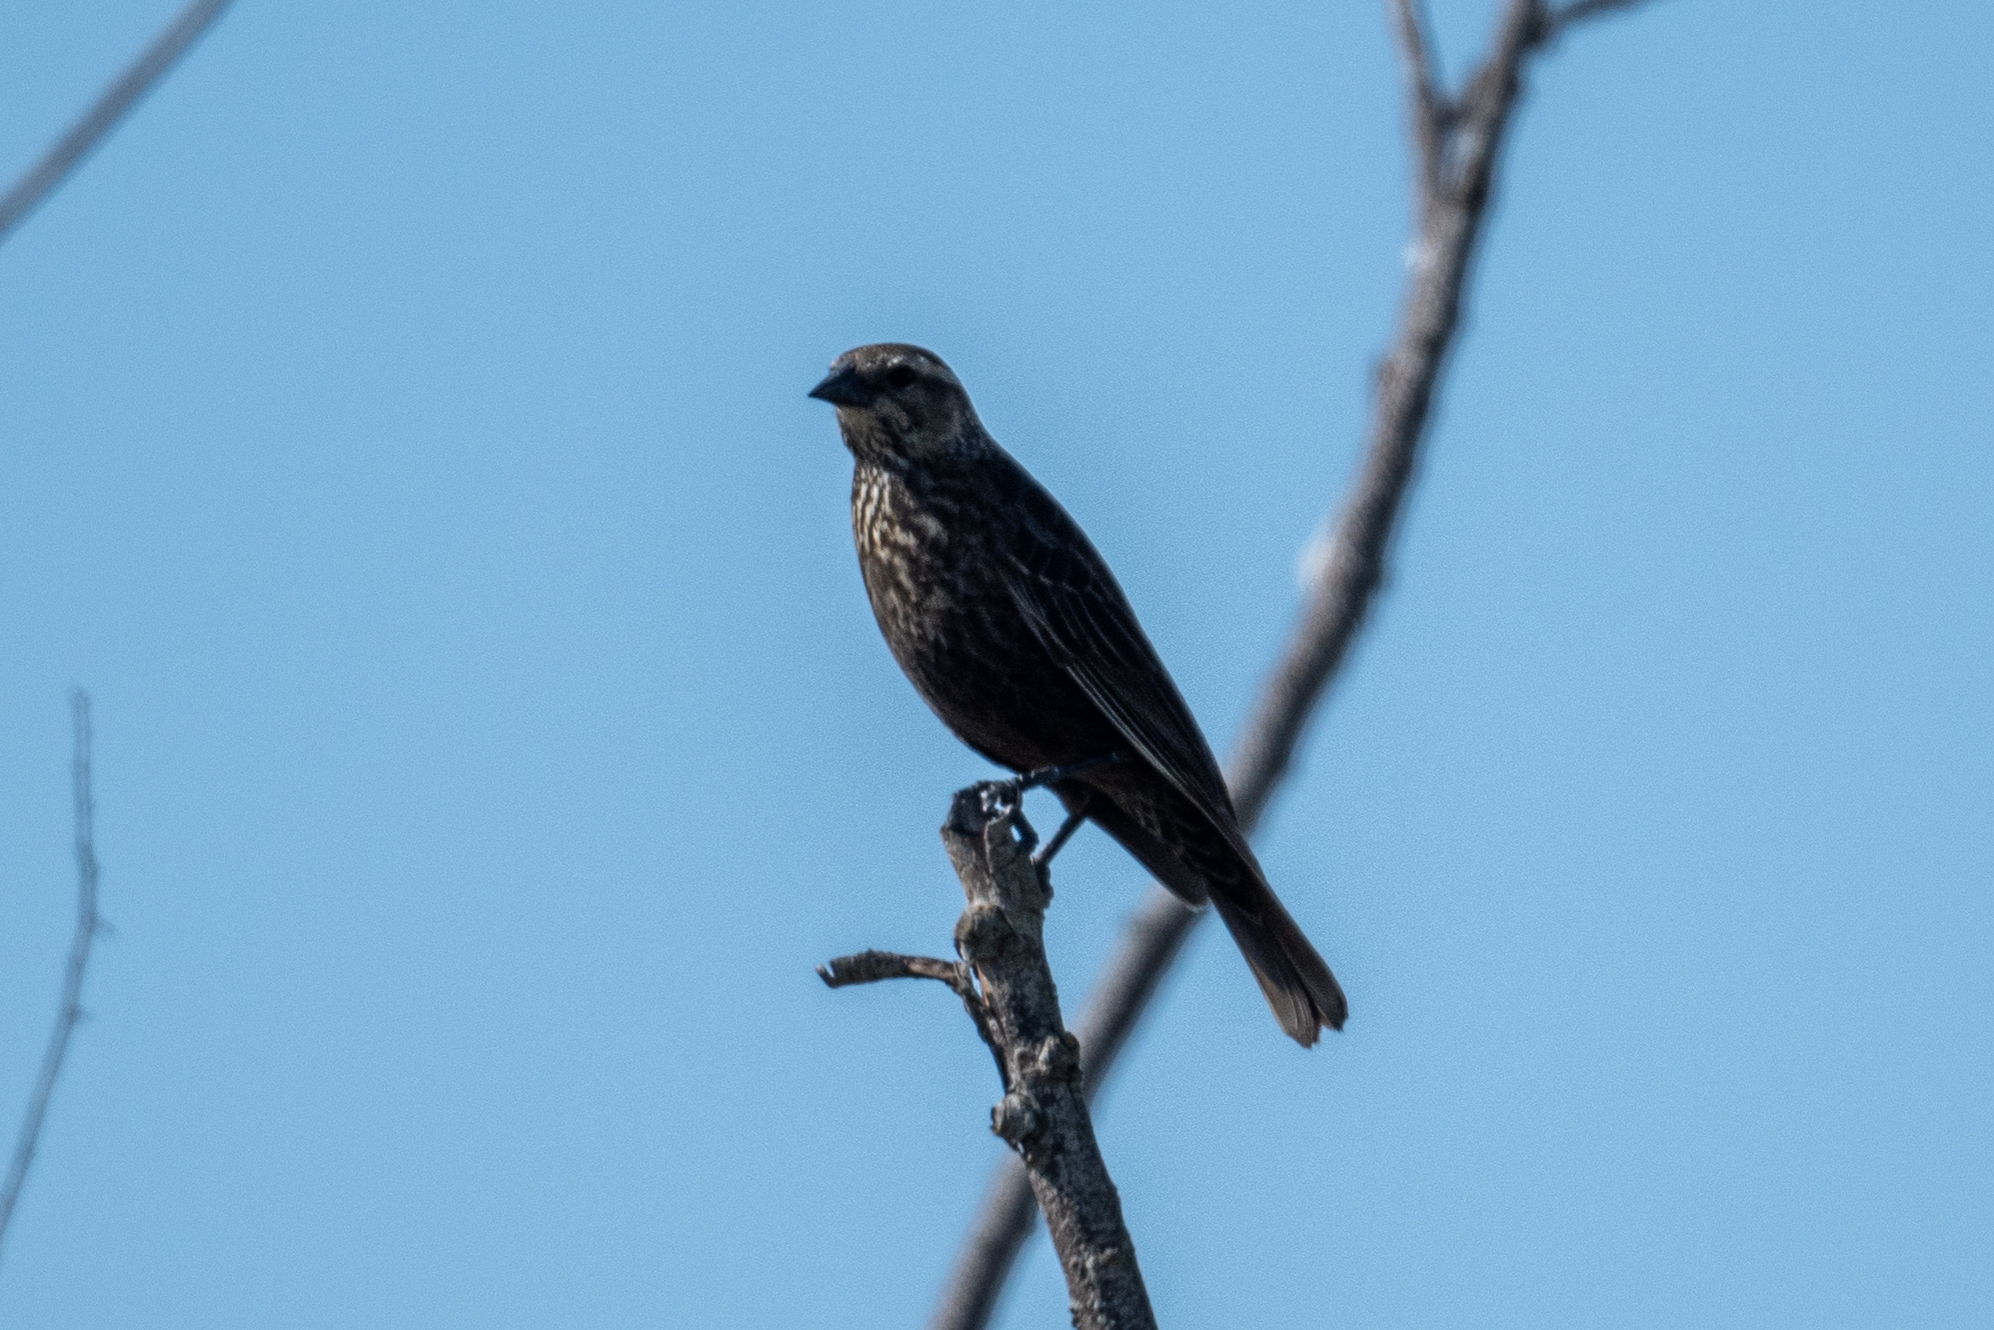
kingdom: Animalia
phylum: Chordata
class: Aves
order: Passeriformes
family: Icteridae
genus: Agelaius
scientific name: Agelaius phoeniceus
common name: Red-winged blackbird
